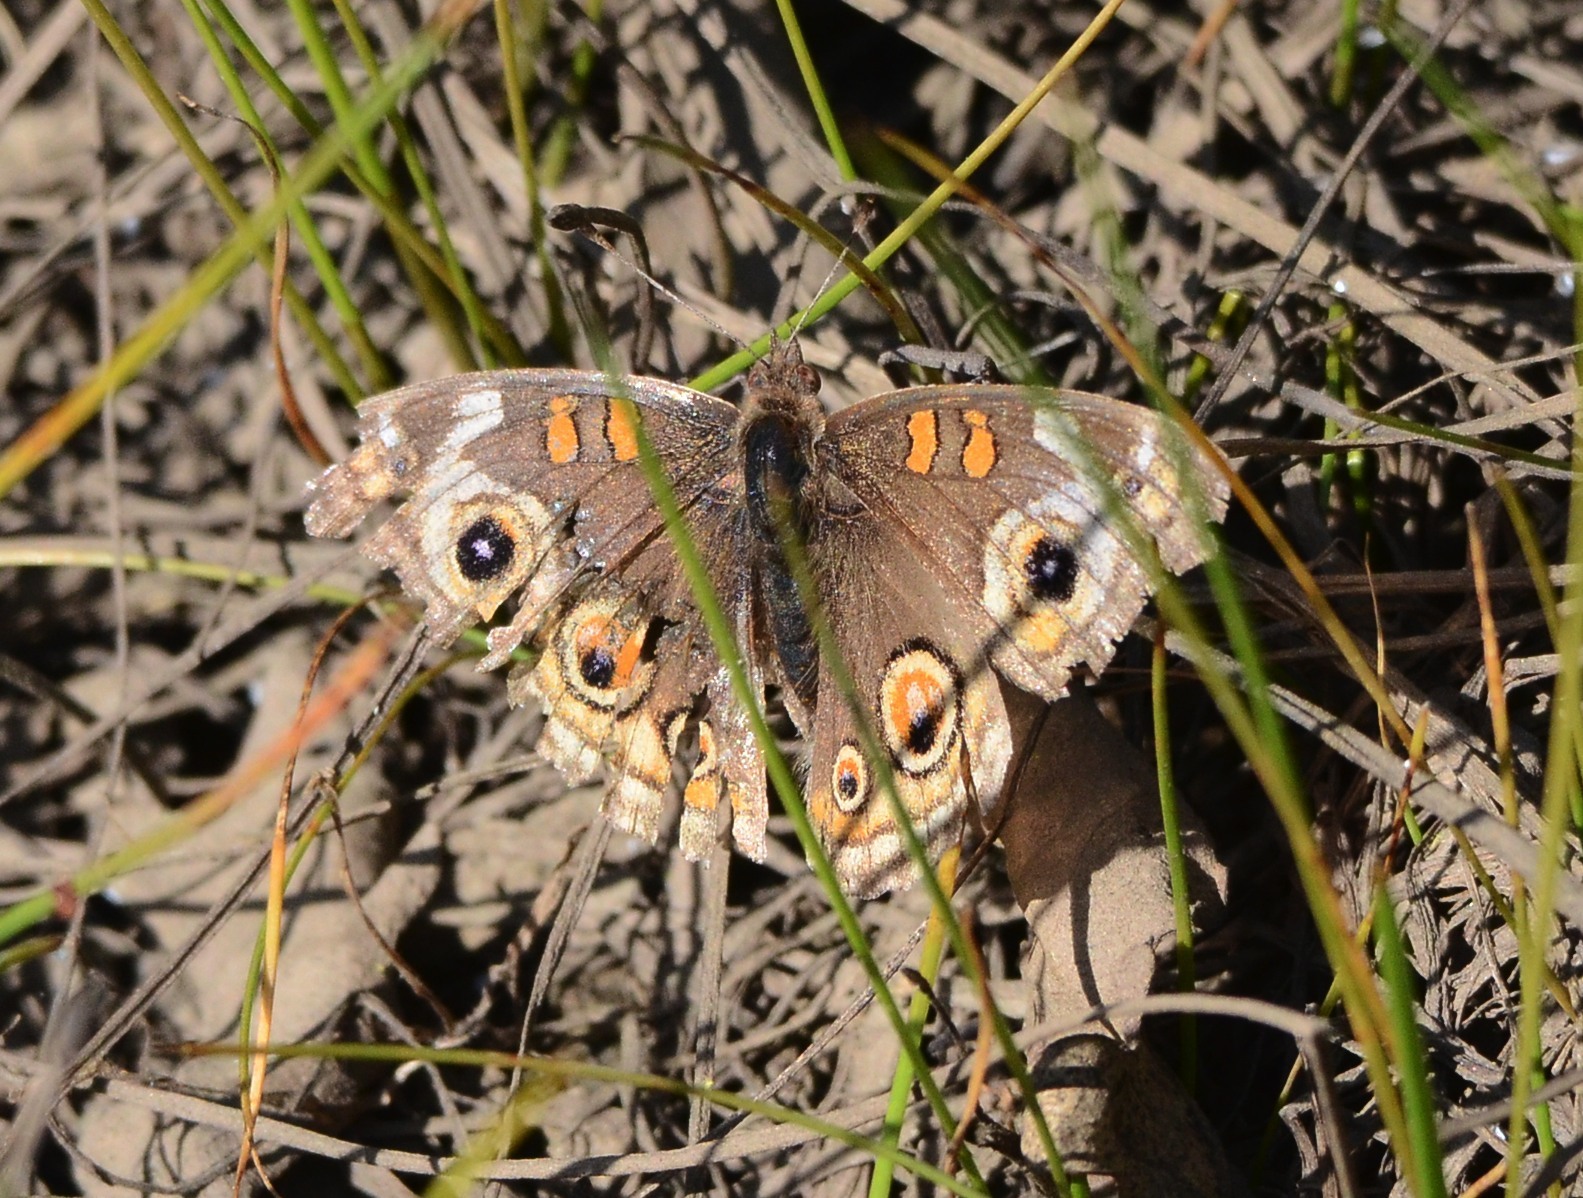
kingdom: Animalia
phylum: Arthropoda
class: Insecta
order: Lepidoptera
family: Nymphalidae
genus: Junonia
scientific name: Junonia grisea
